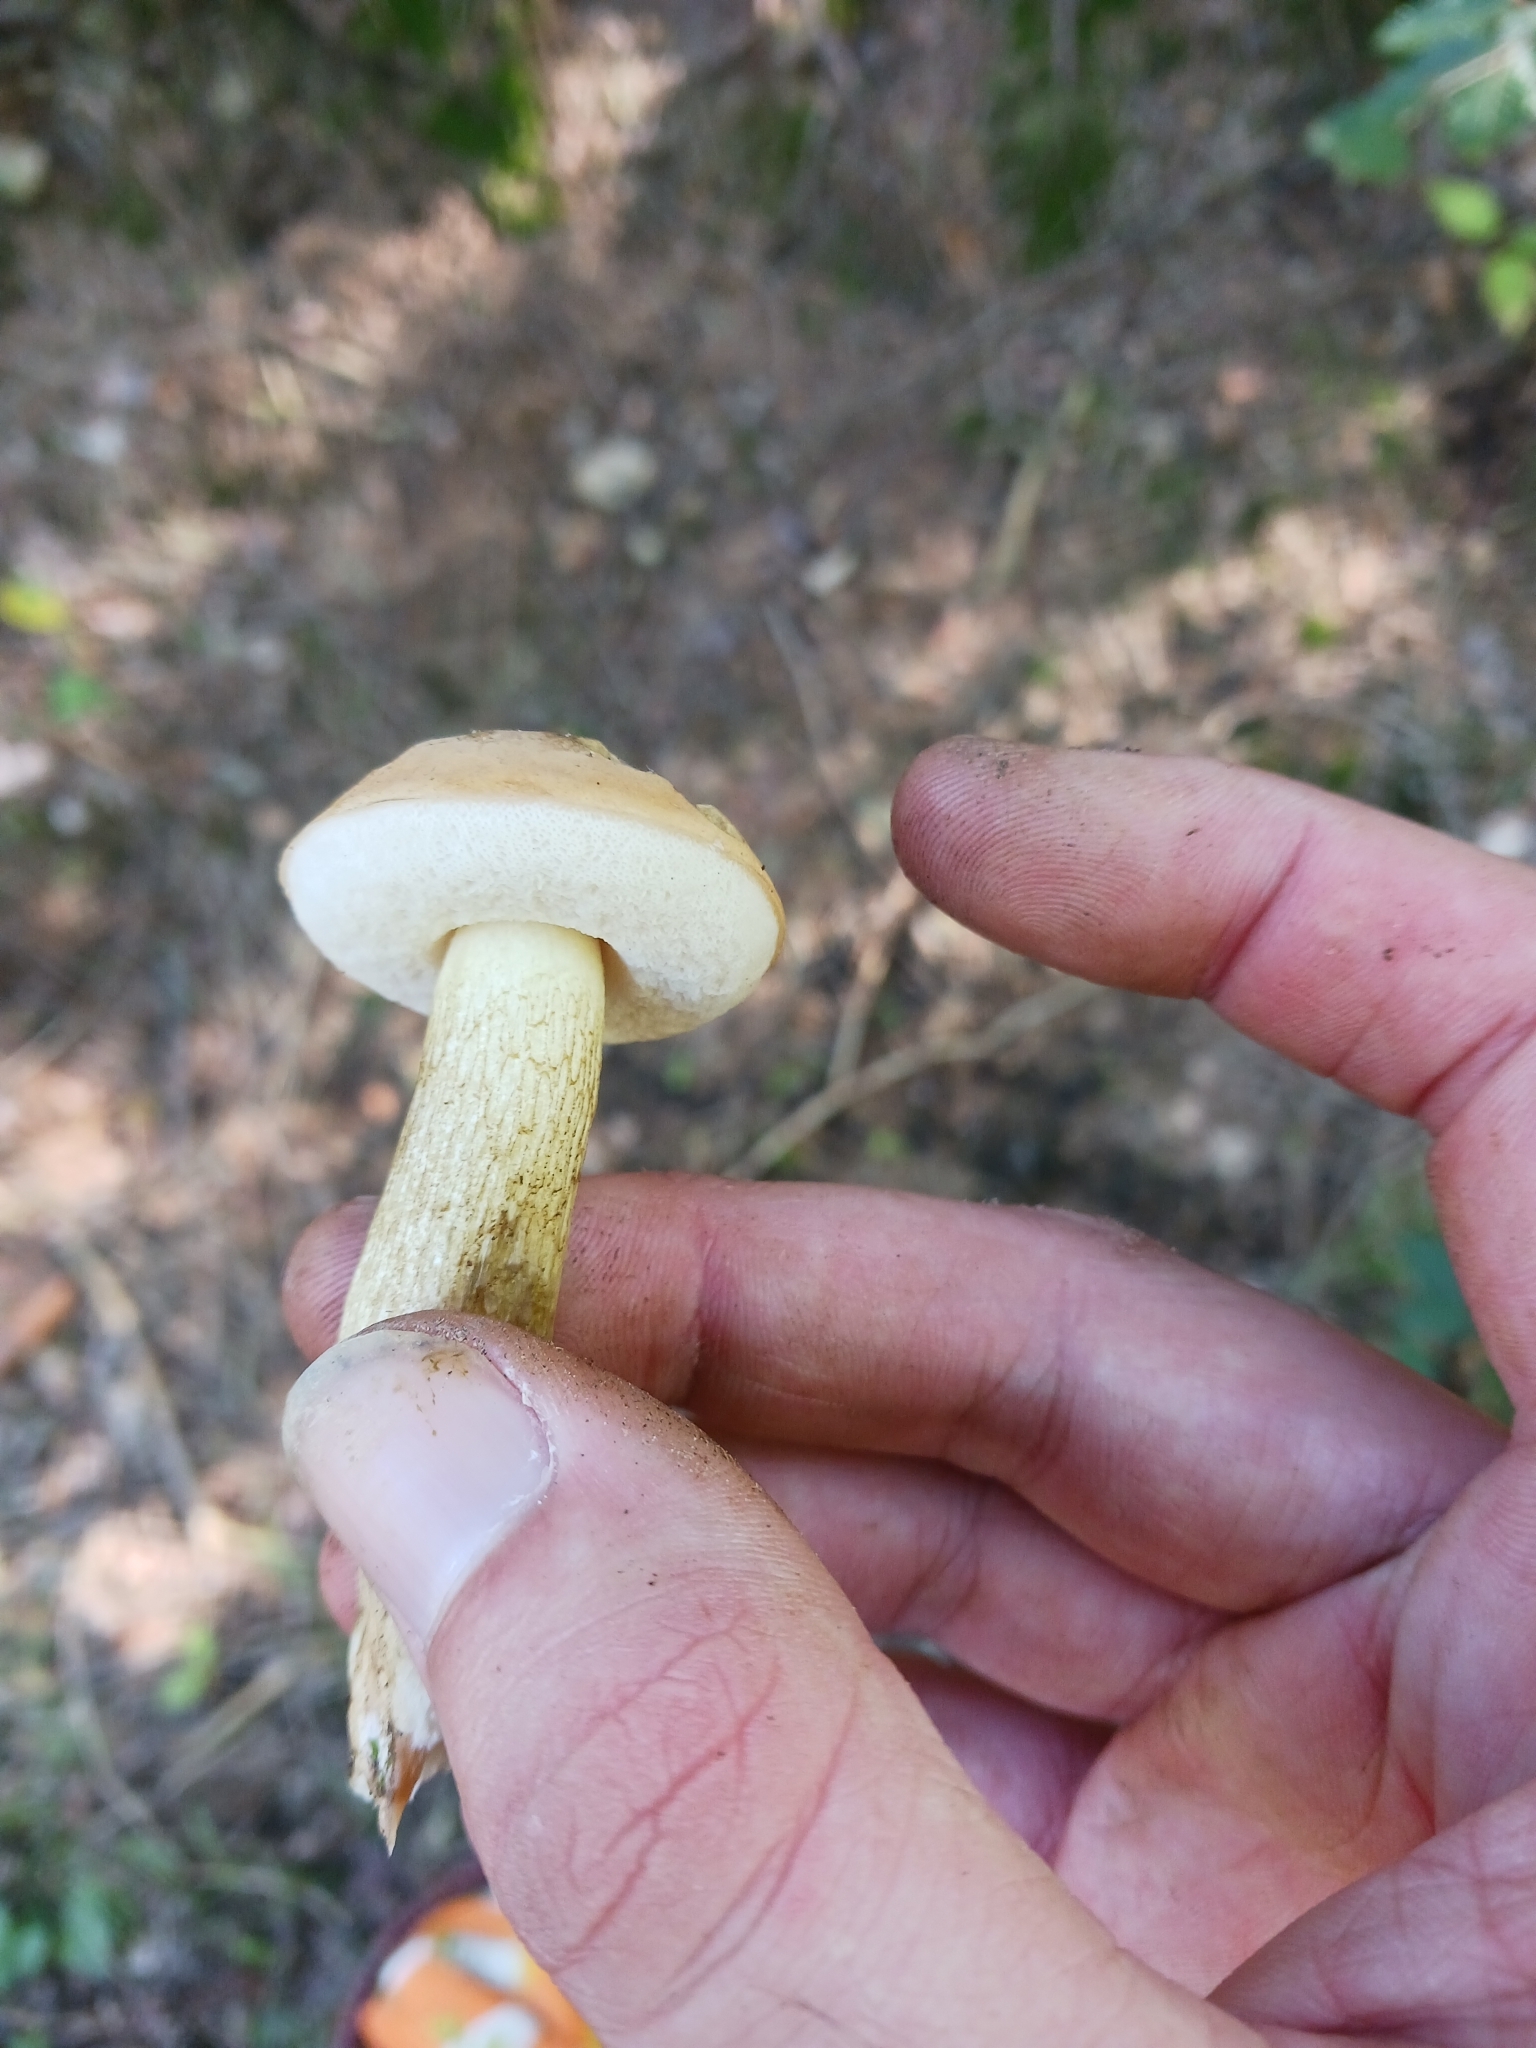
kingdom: Fungi
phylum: Basidiomycota
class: Agaricomycetes
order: Boletales
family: Boletaceae
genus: Tylopilus
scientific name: Tylopilus felleus
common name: Bitter bolete
